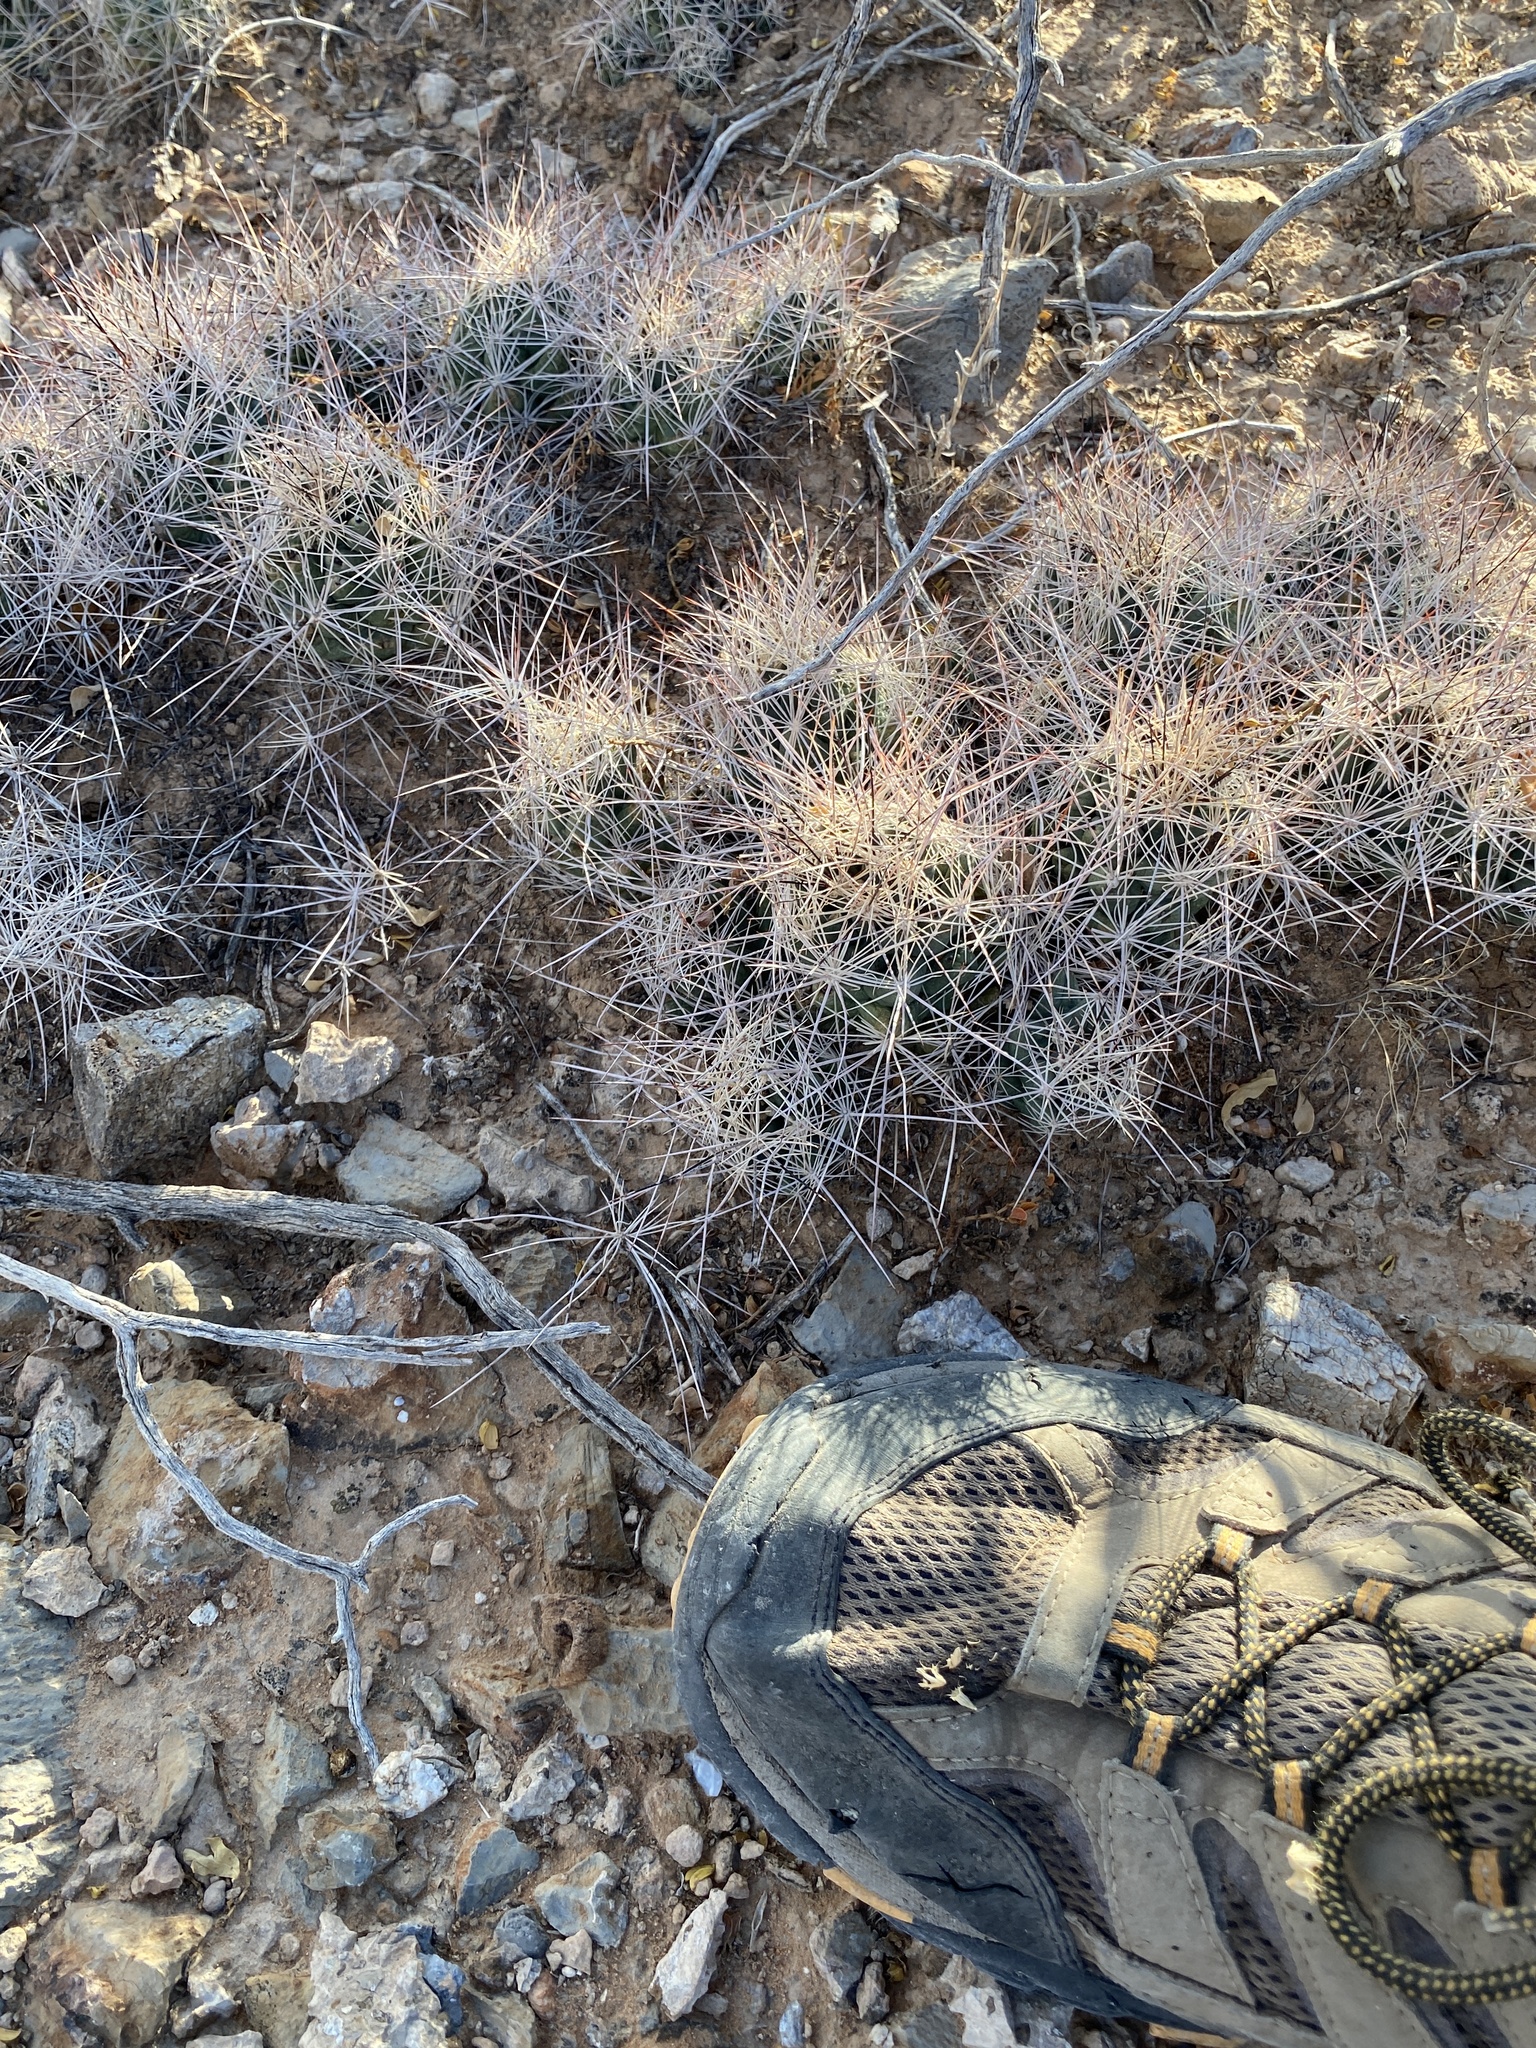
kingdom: Plantae
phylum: Tracheophyta
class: Magnoliopsida
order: Caryophyllales
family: Cactaceae
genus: Coryphantha
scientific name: Coryphantha macromeris
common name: Nipple beehive cactus
